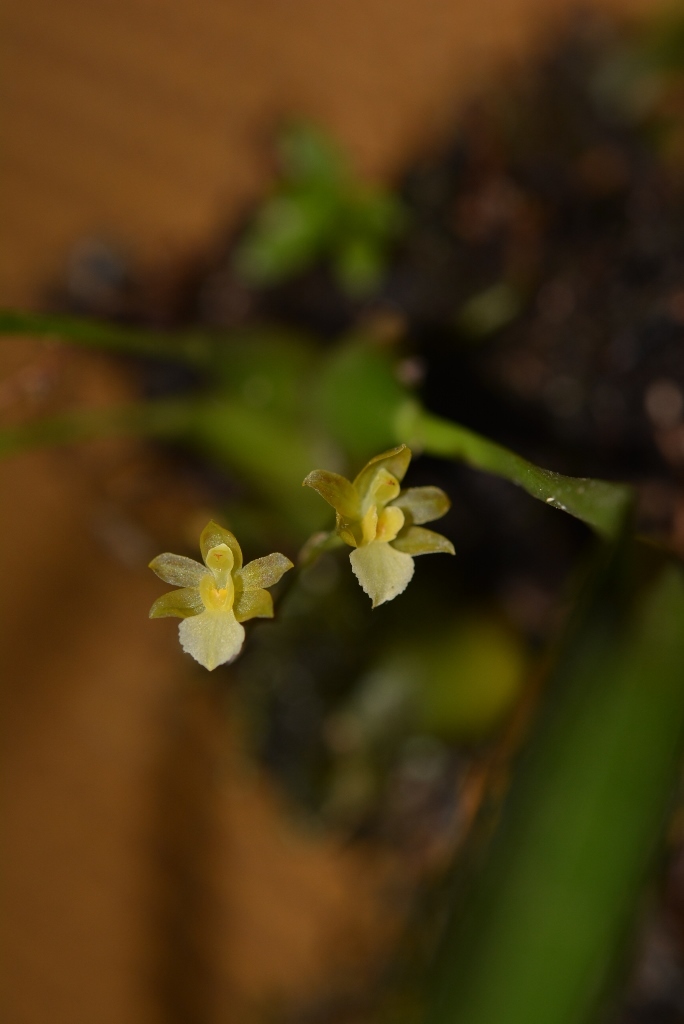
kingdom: Plantae
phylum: Tracheophyta
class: Liliopsida
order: Asparagales
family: Orchidaceae
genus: Rhynchostele
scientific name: Rhynchostele pygmaea
